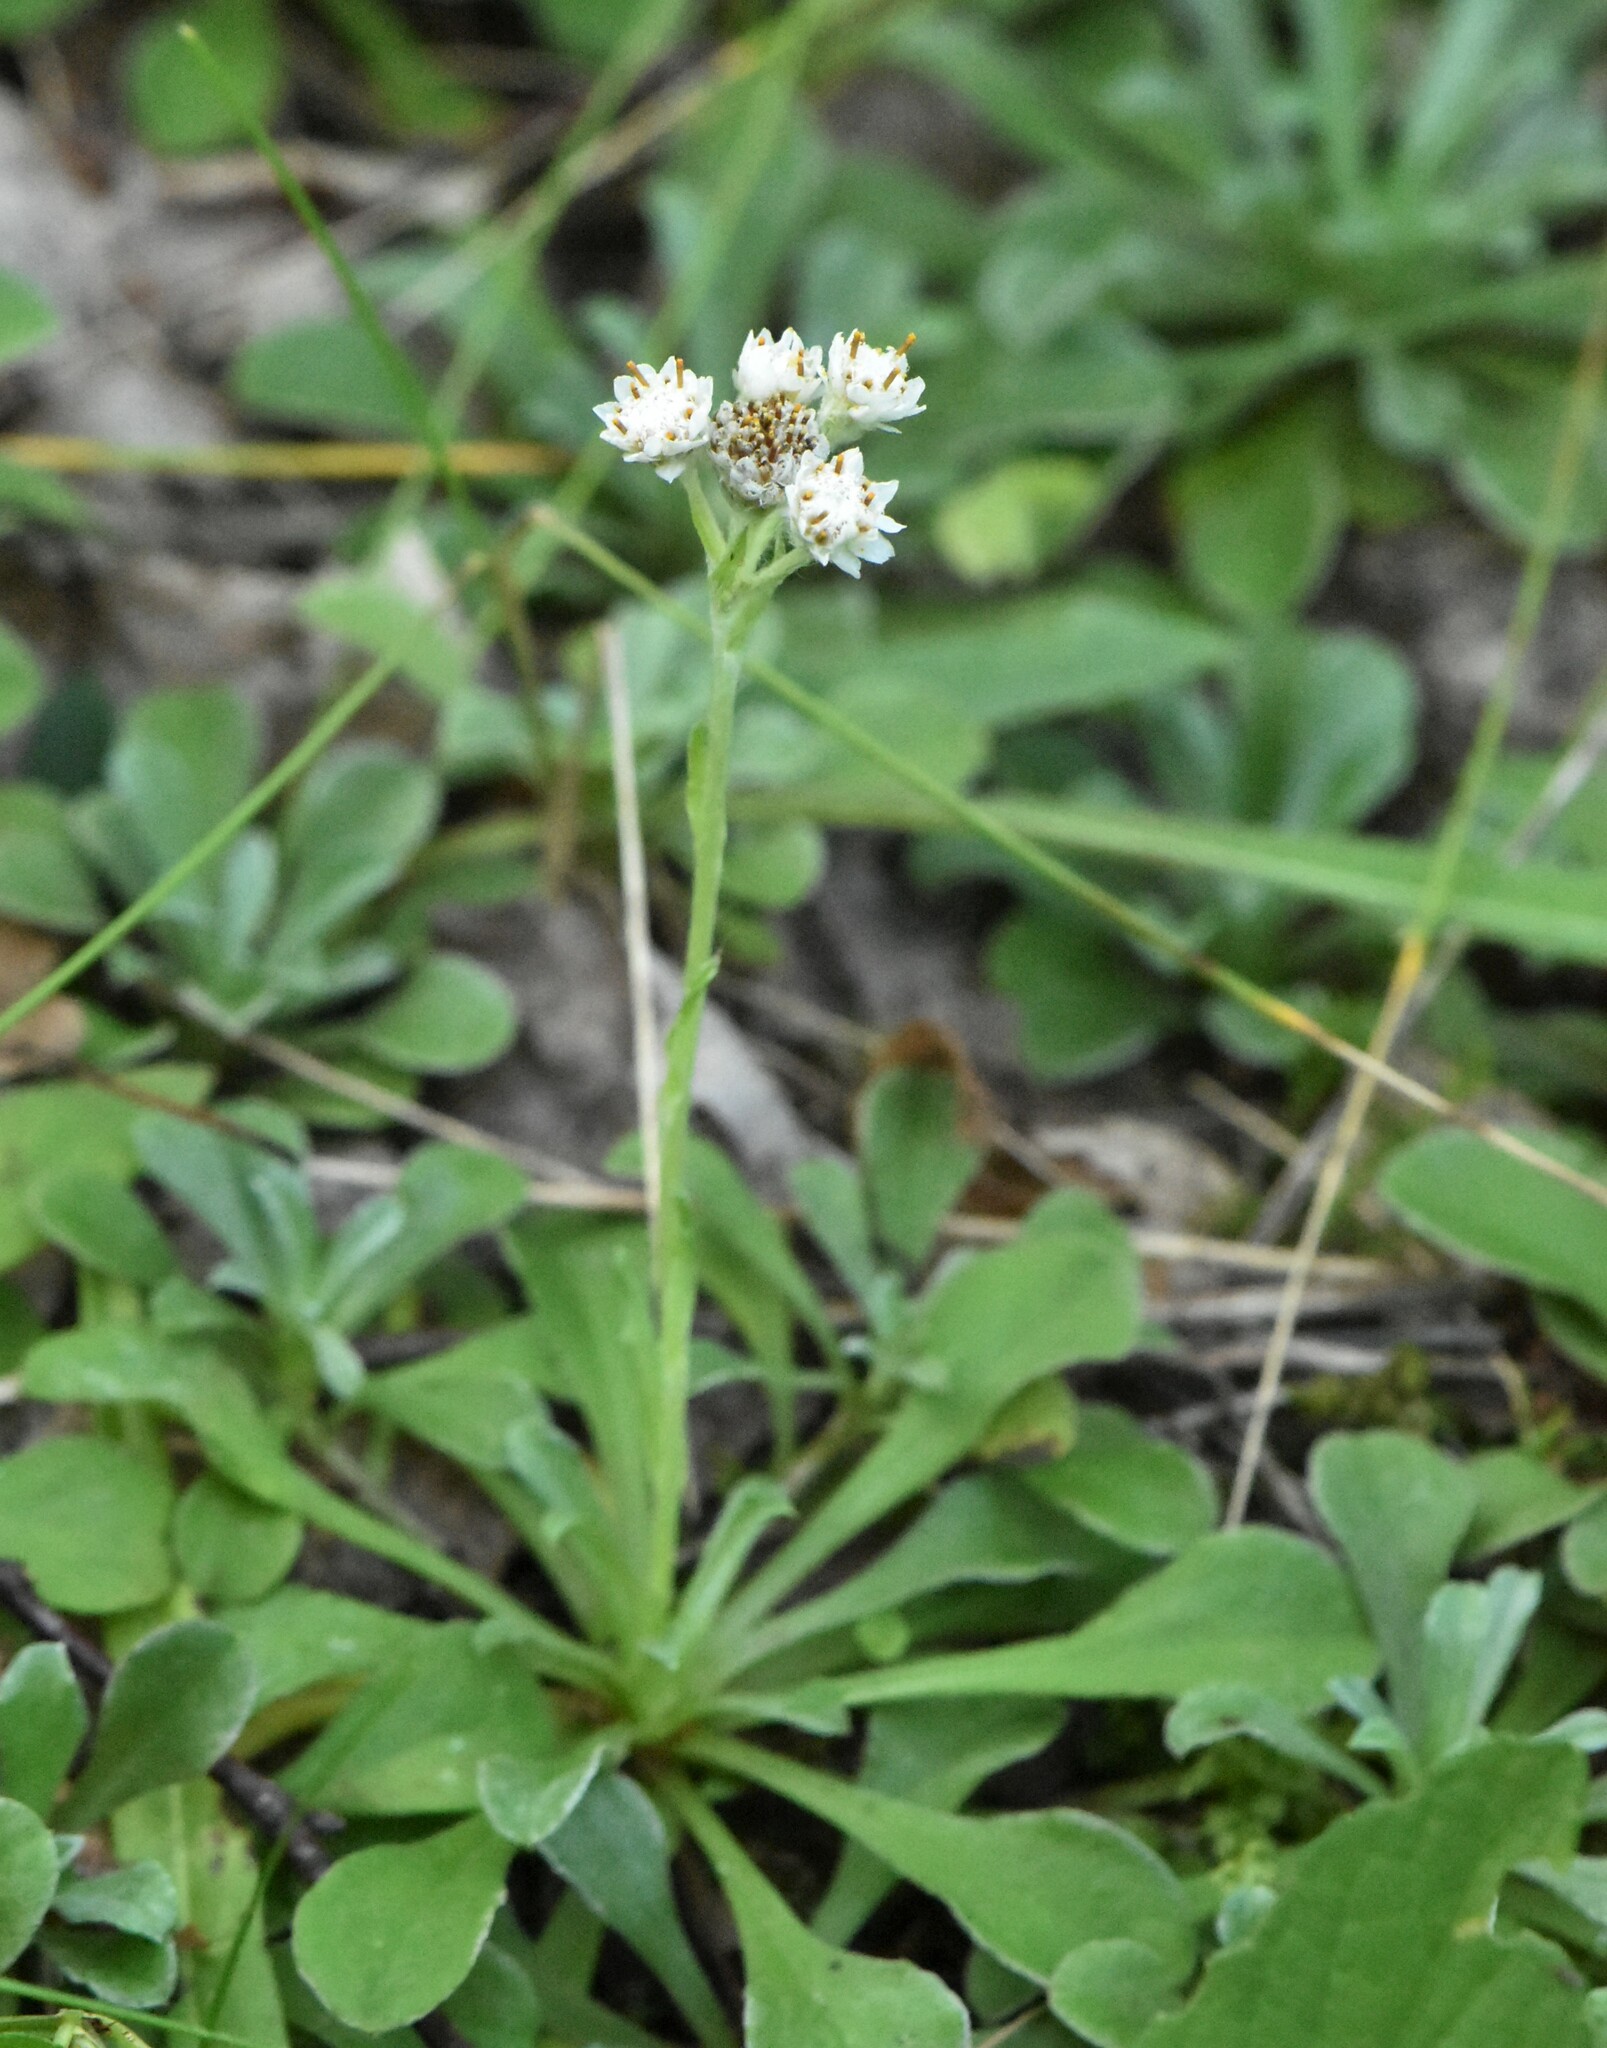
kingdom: Plantae
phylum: Tracheophyta
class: Magnoliopsida
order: Asterales
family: Asteraceae
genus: Antennaria
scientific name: Antennaria dioica
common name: Mountain everlasting
